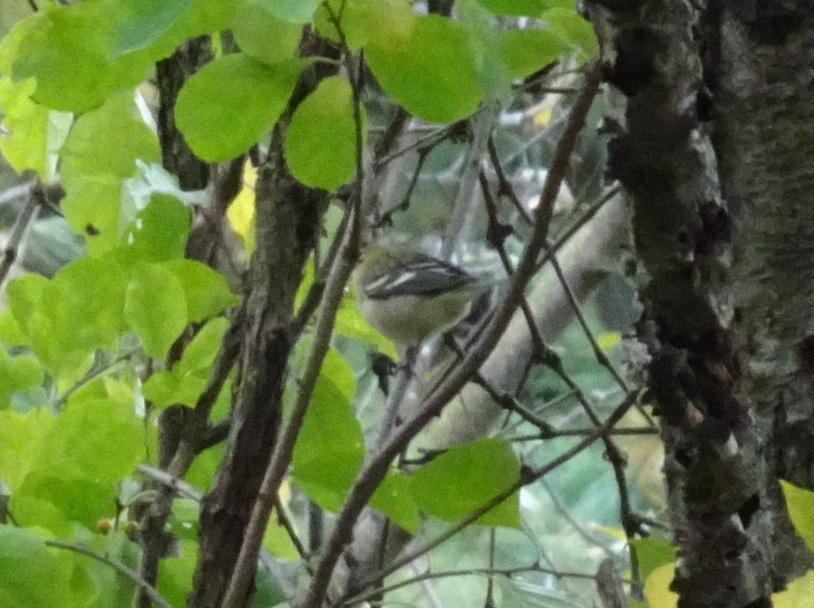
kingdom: Animalia
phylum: Chordata
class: Aves
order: Passeriformes
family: Parulidae
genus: Setophaga
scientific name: Setophaga castanea
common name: Bay-breasted warbler
